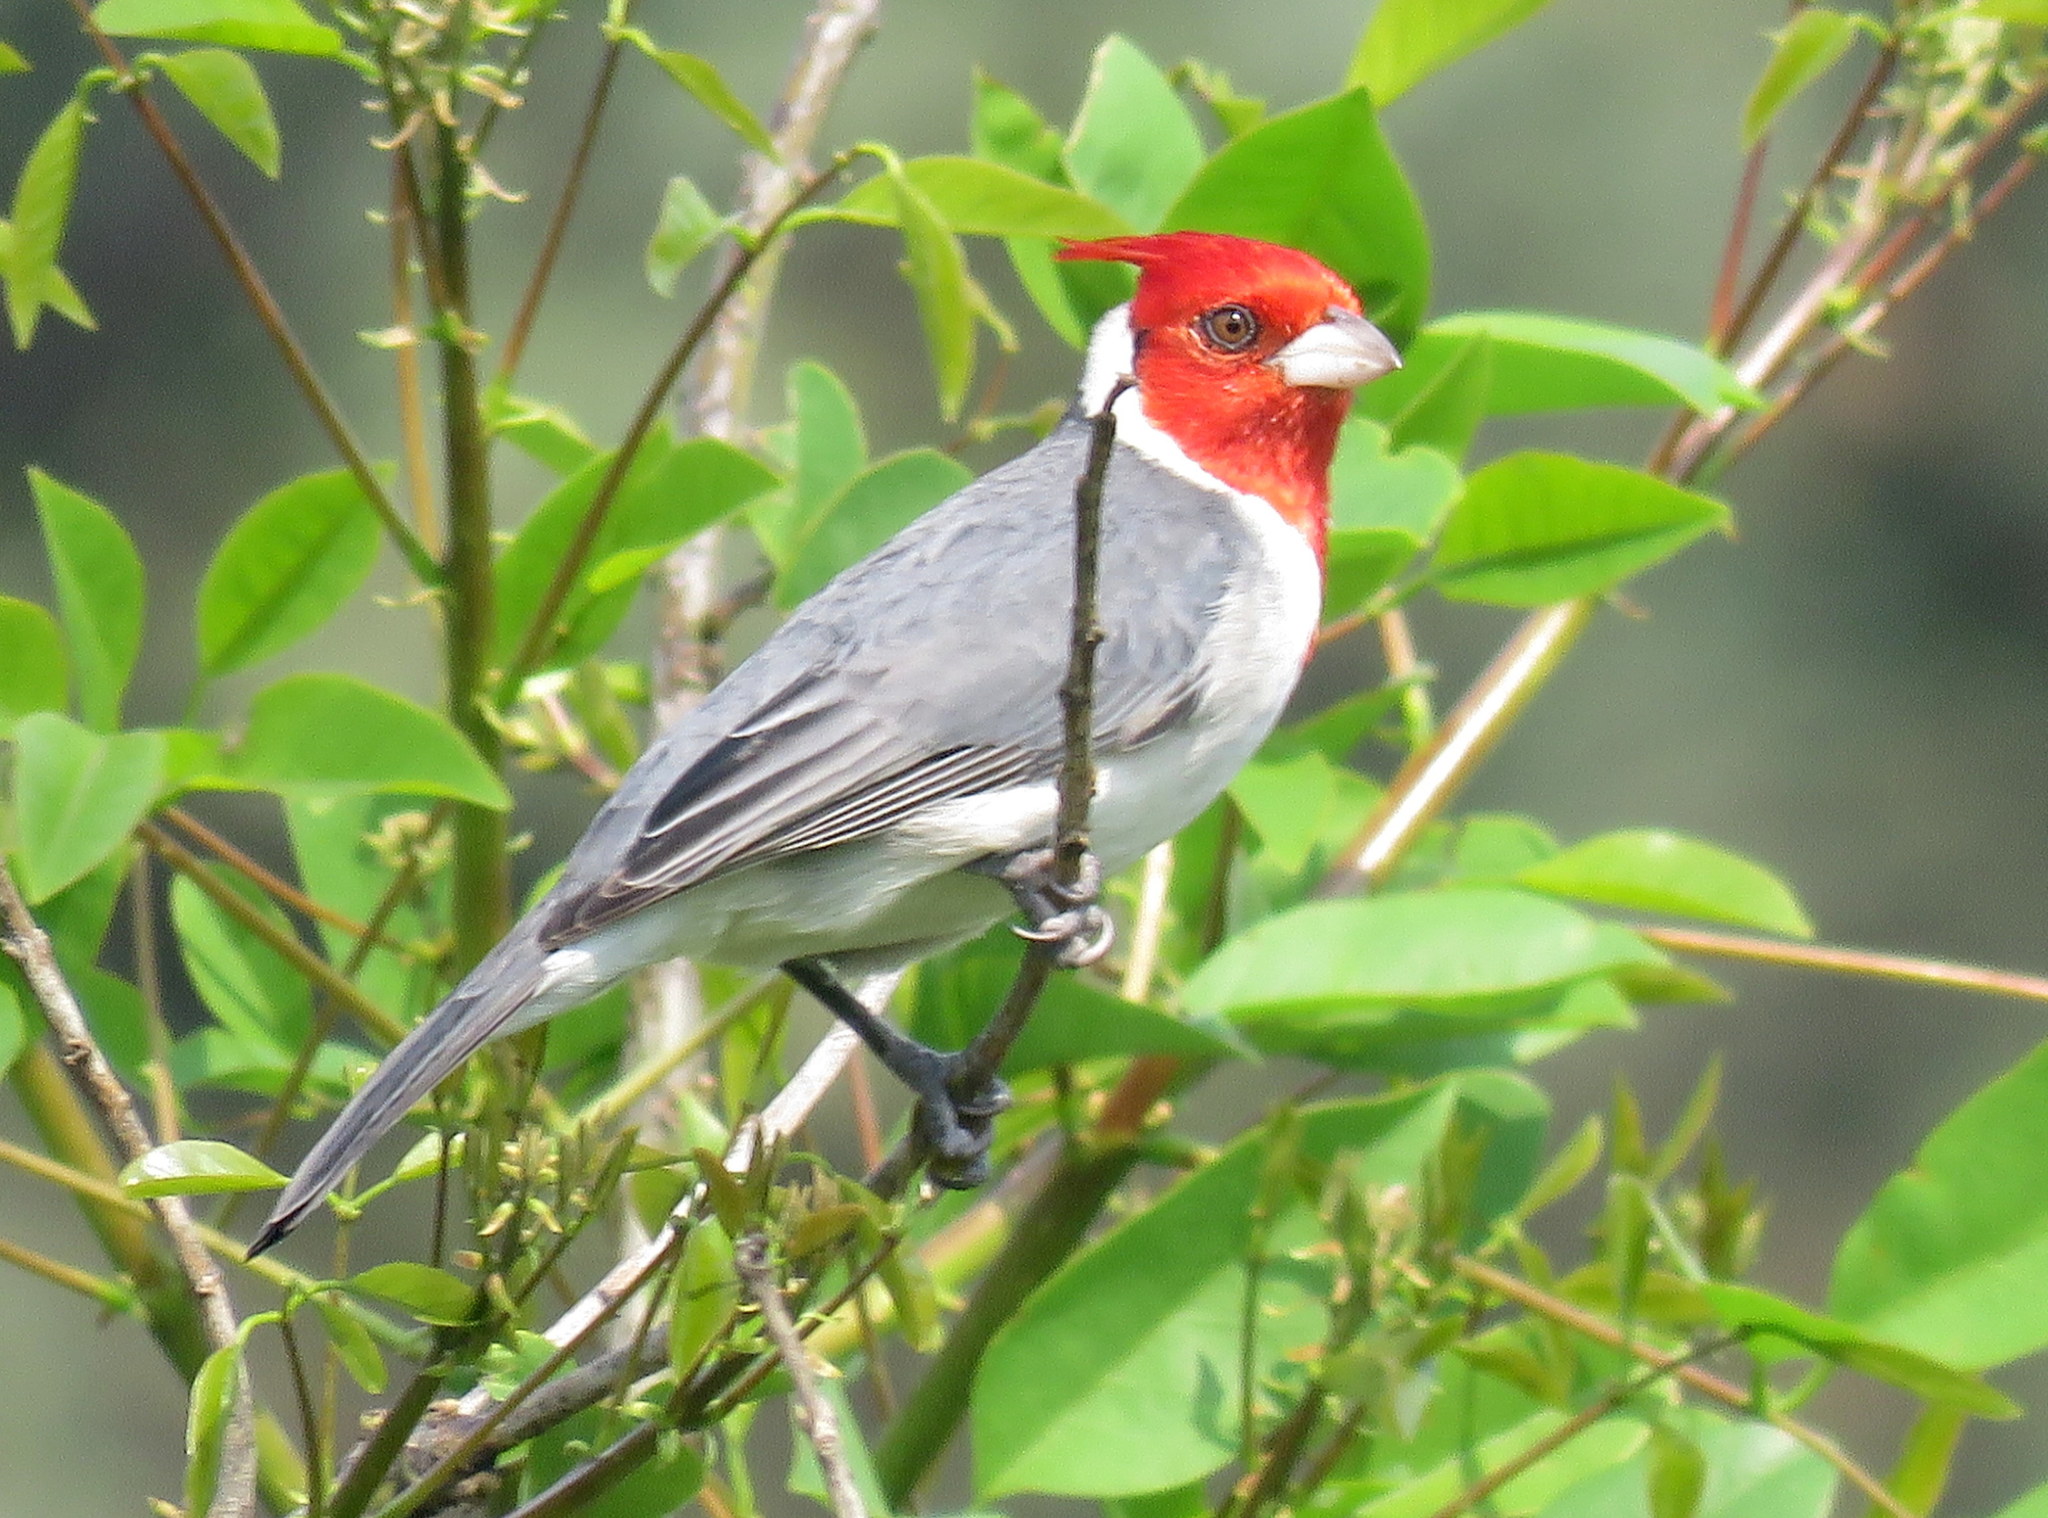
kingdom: Animalia
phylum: Chordata
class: Aves
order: Passeriformes
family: Thraupidae
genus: Paroaria
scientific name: Paroaria coronata
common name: Red-crested cardinal
